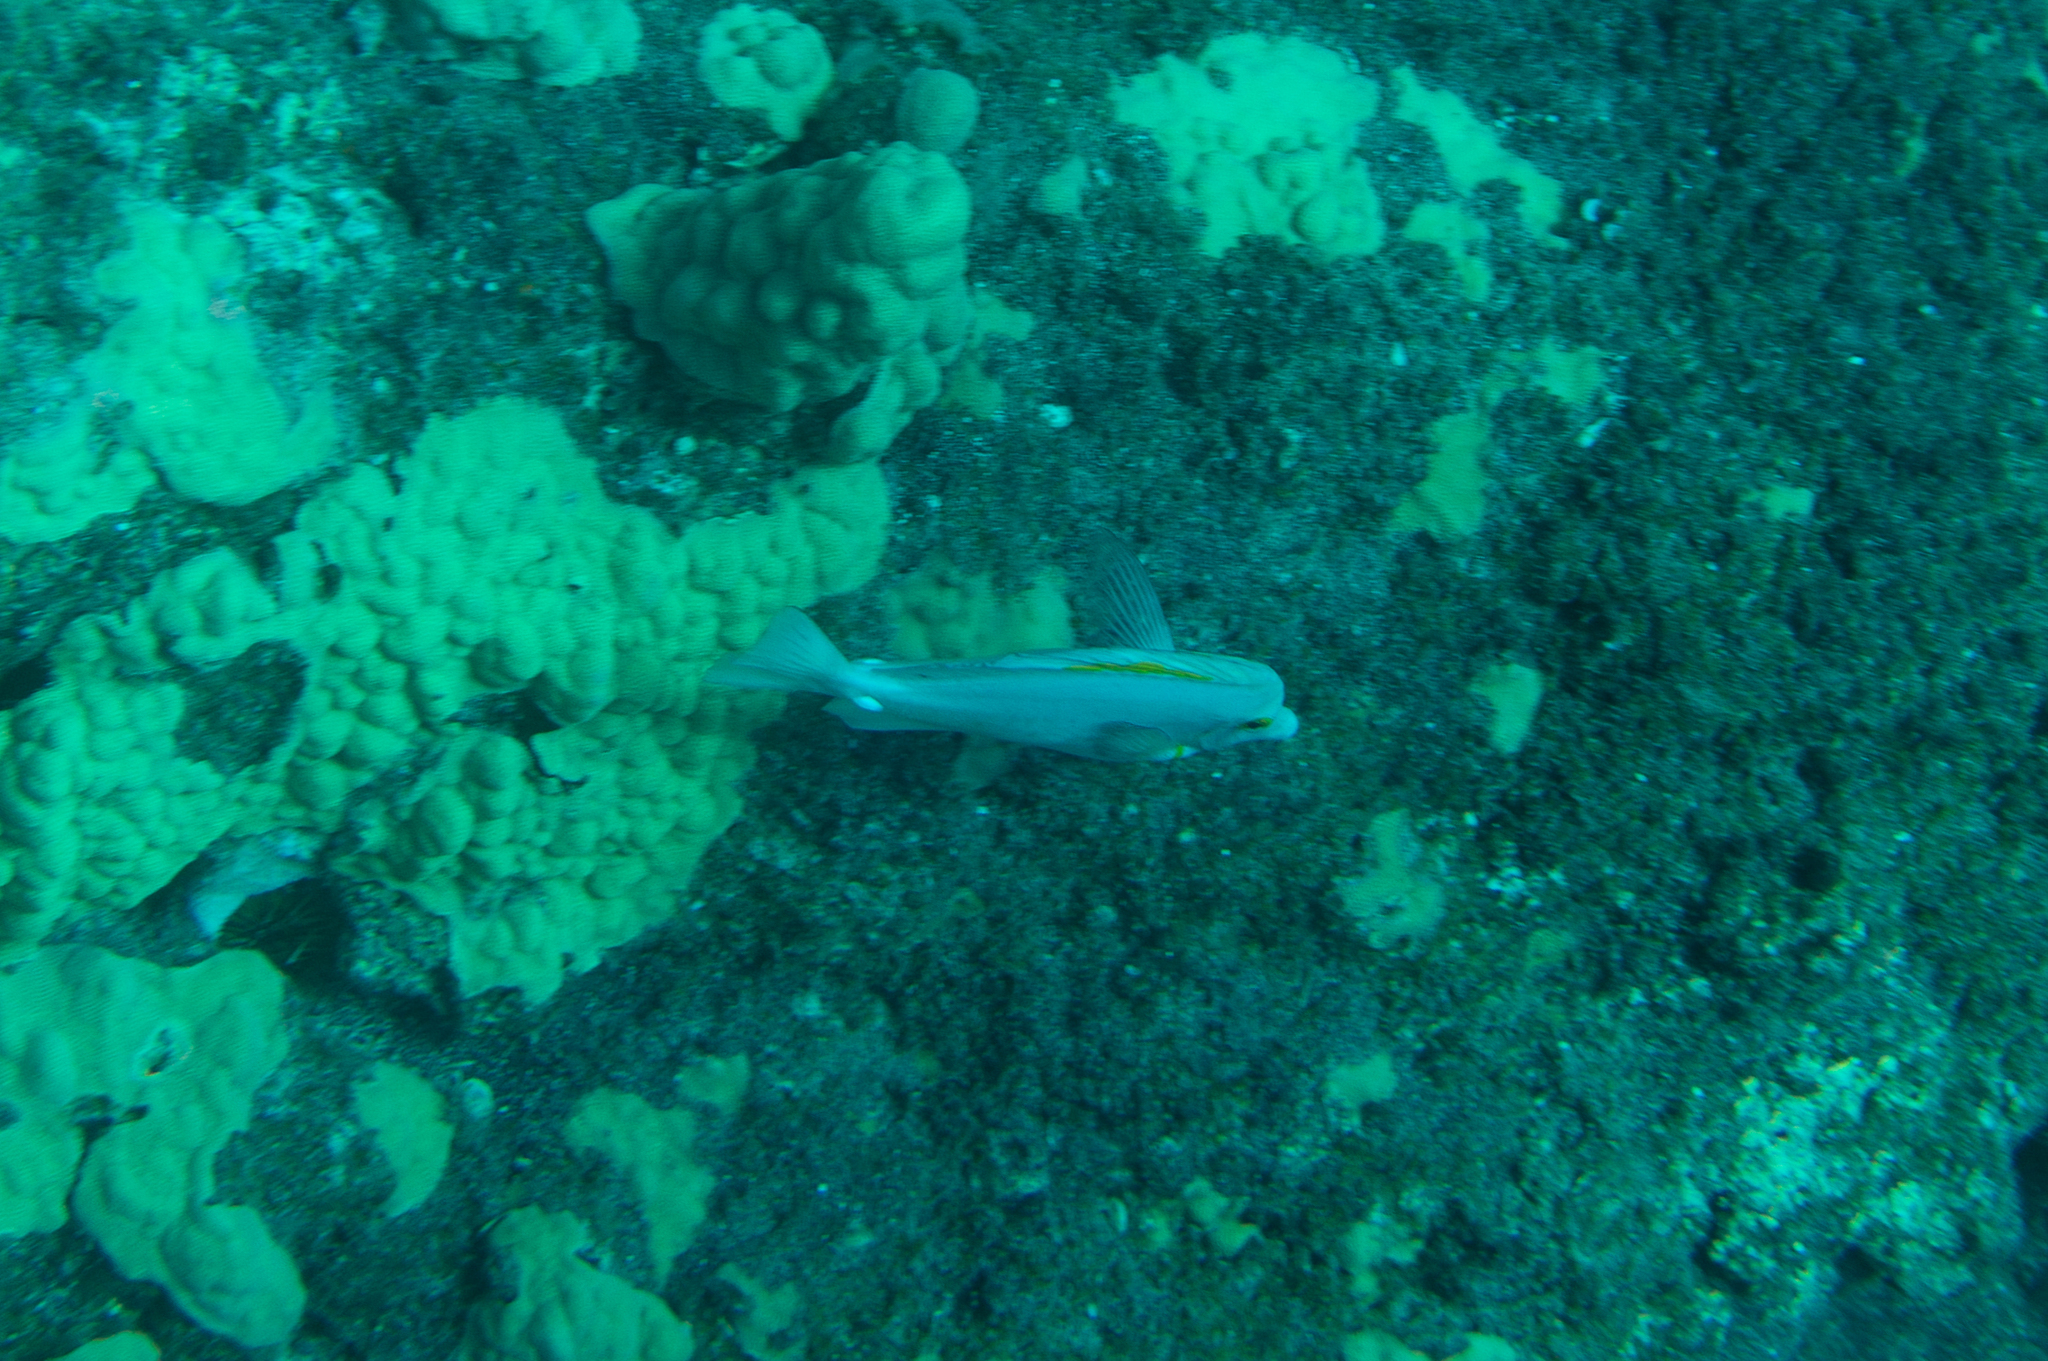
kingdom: Animalia
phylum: Chordata
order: Perciformes
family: Acanthuridae
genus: Zebrasoma
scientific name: Zebrasoma flavescens
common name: Yellow tang
